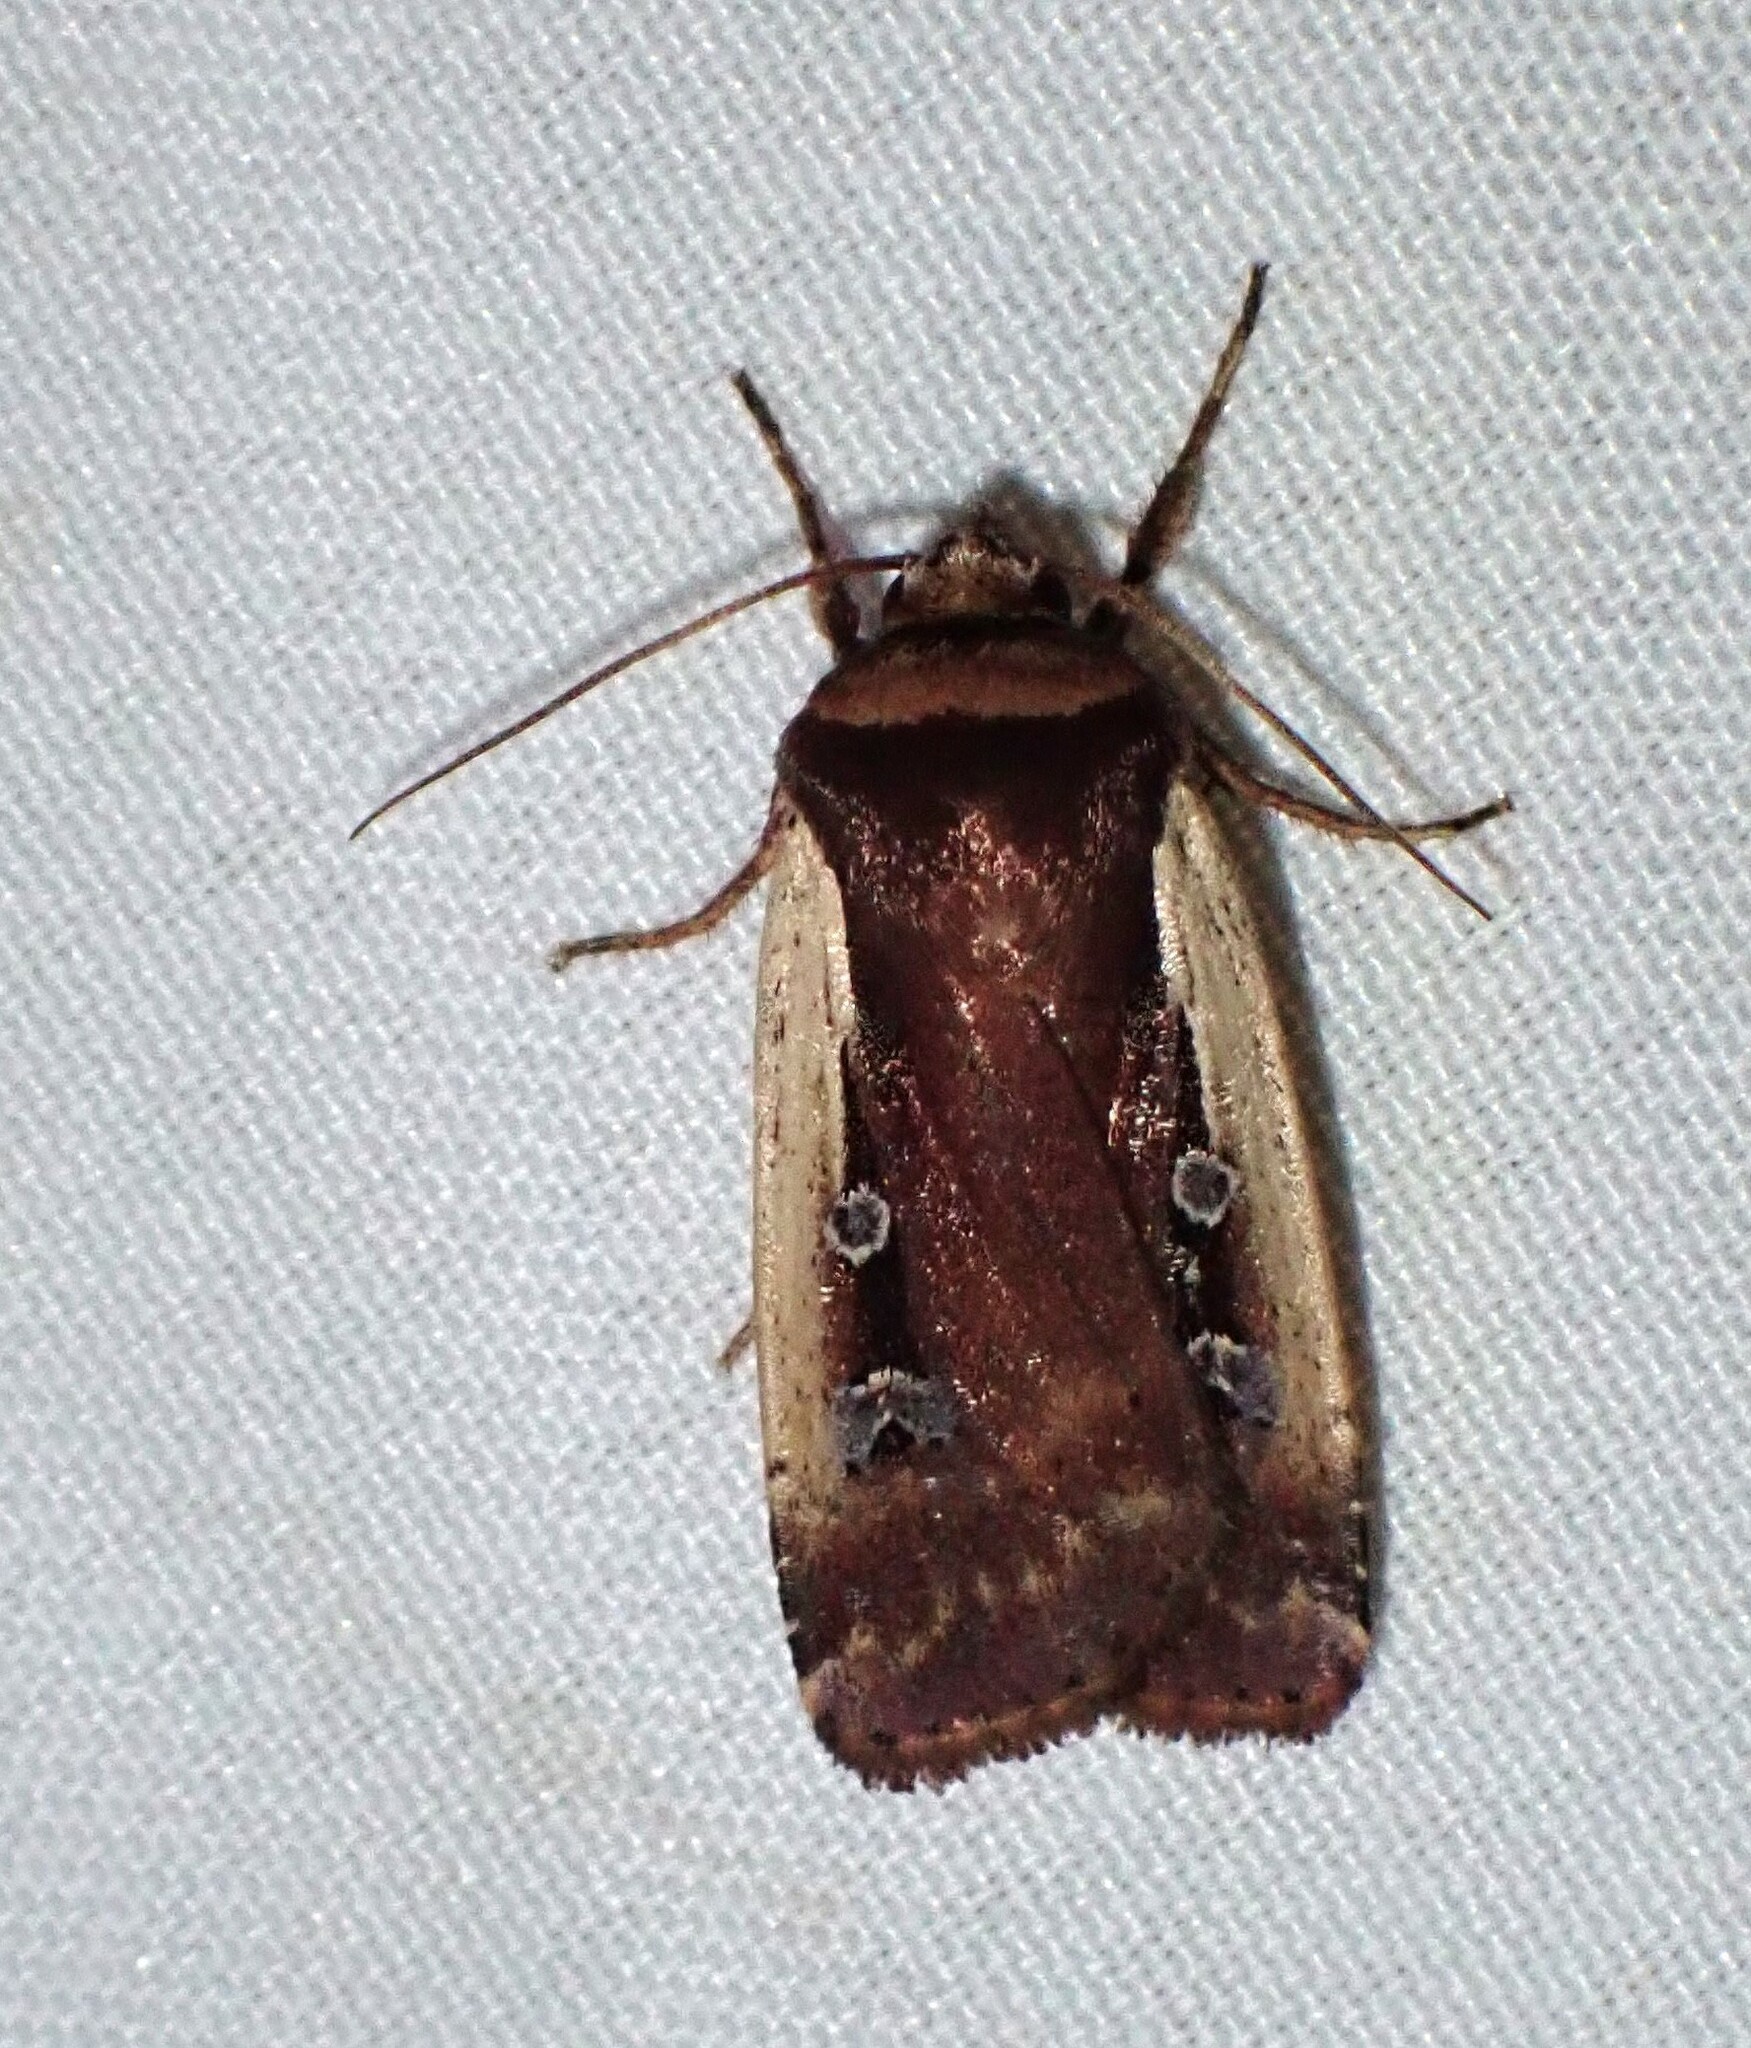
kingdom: Animalia
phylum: Arthropoda
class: Insecta
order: Lepidoptera
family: Noctuidae
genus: Ochropleura
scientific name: Ochropleura implecta
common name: Flame-shouldered dart
